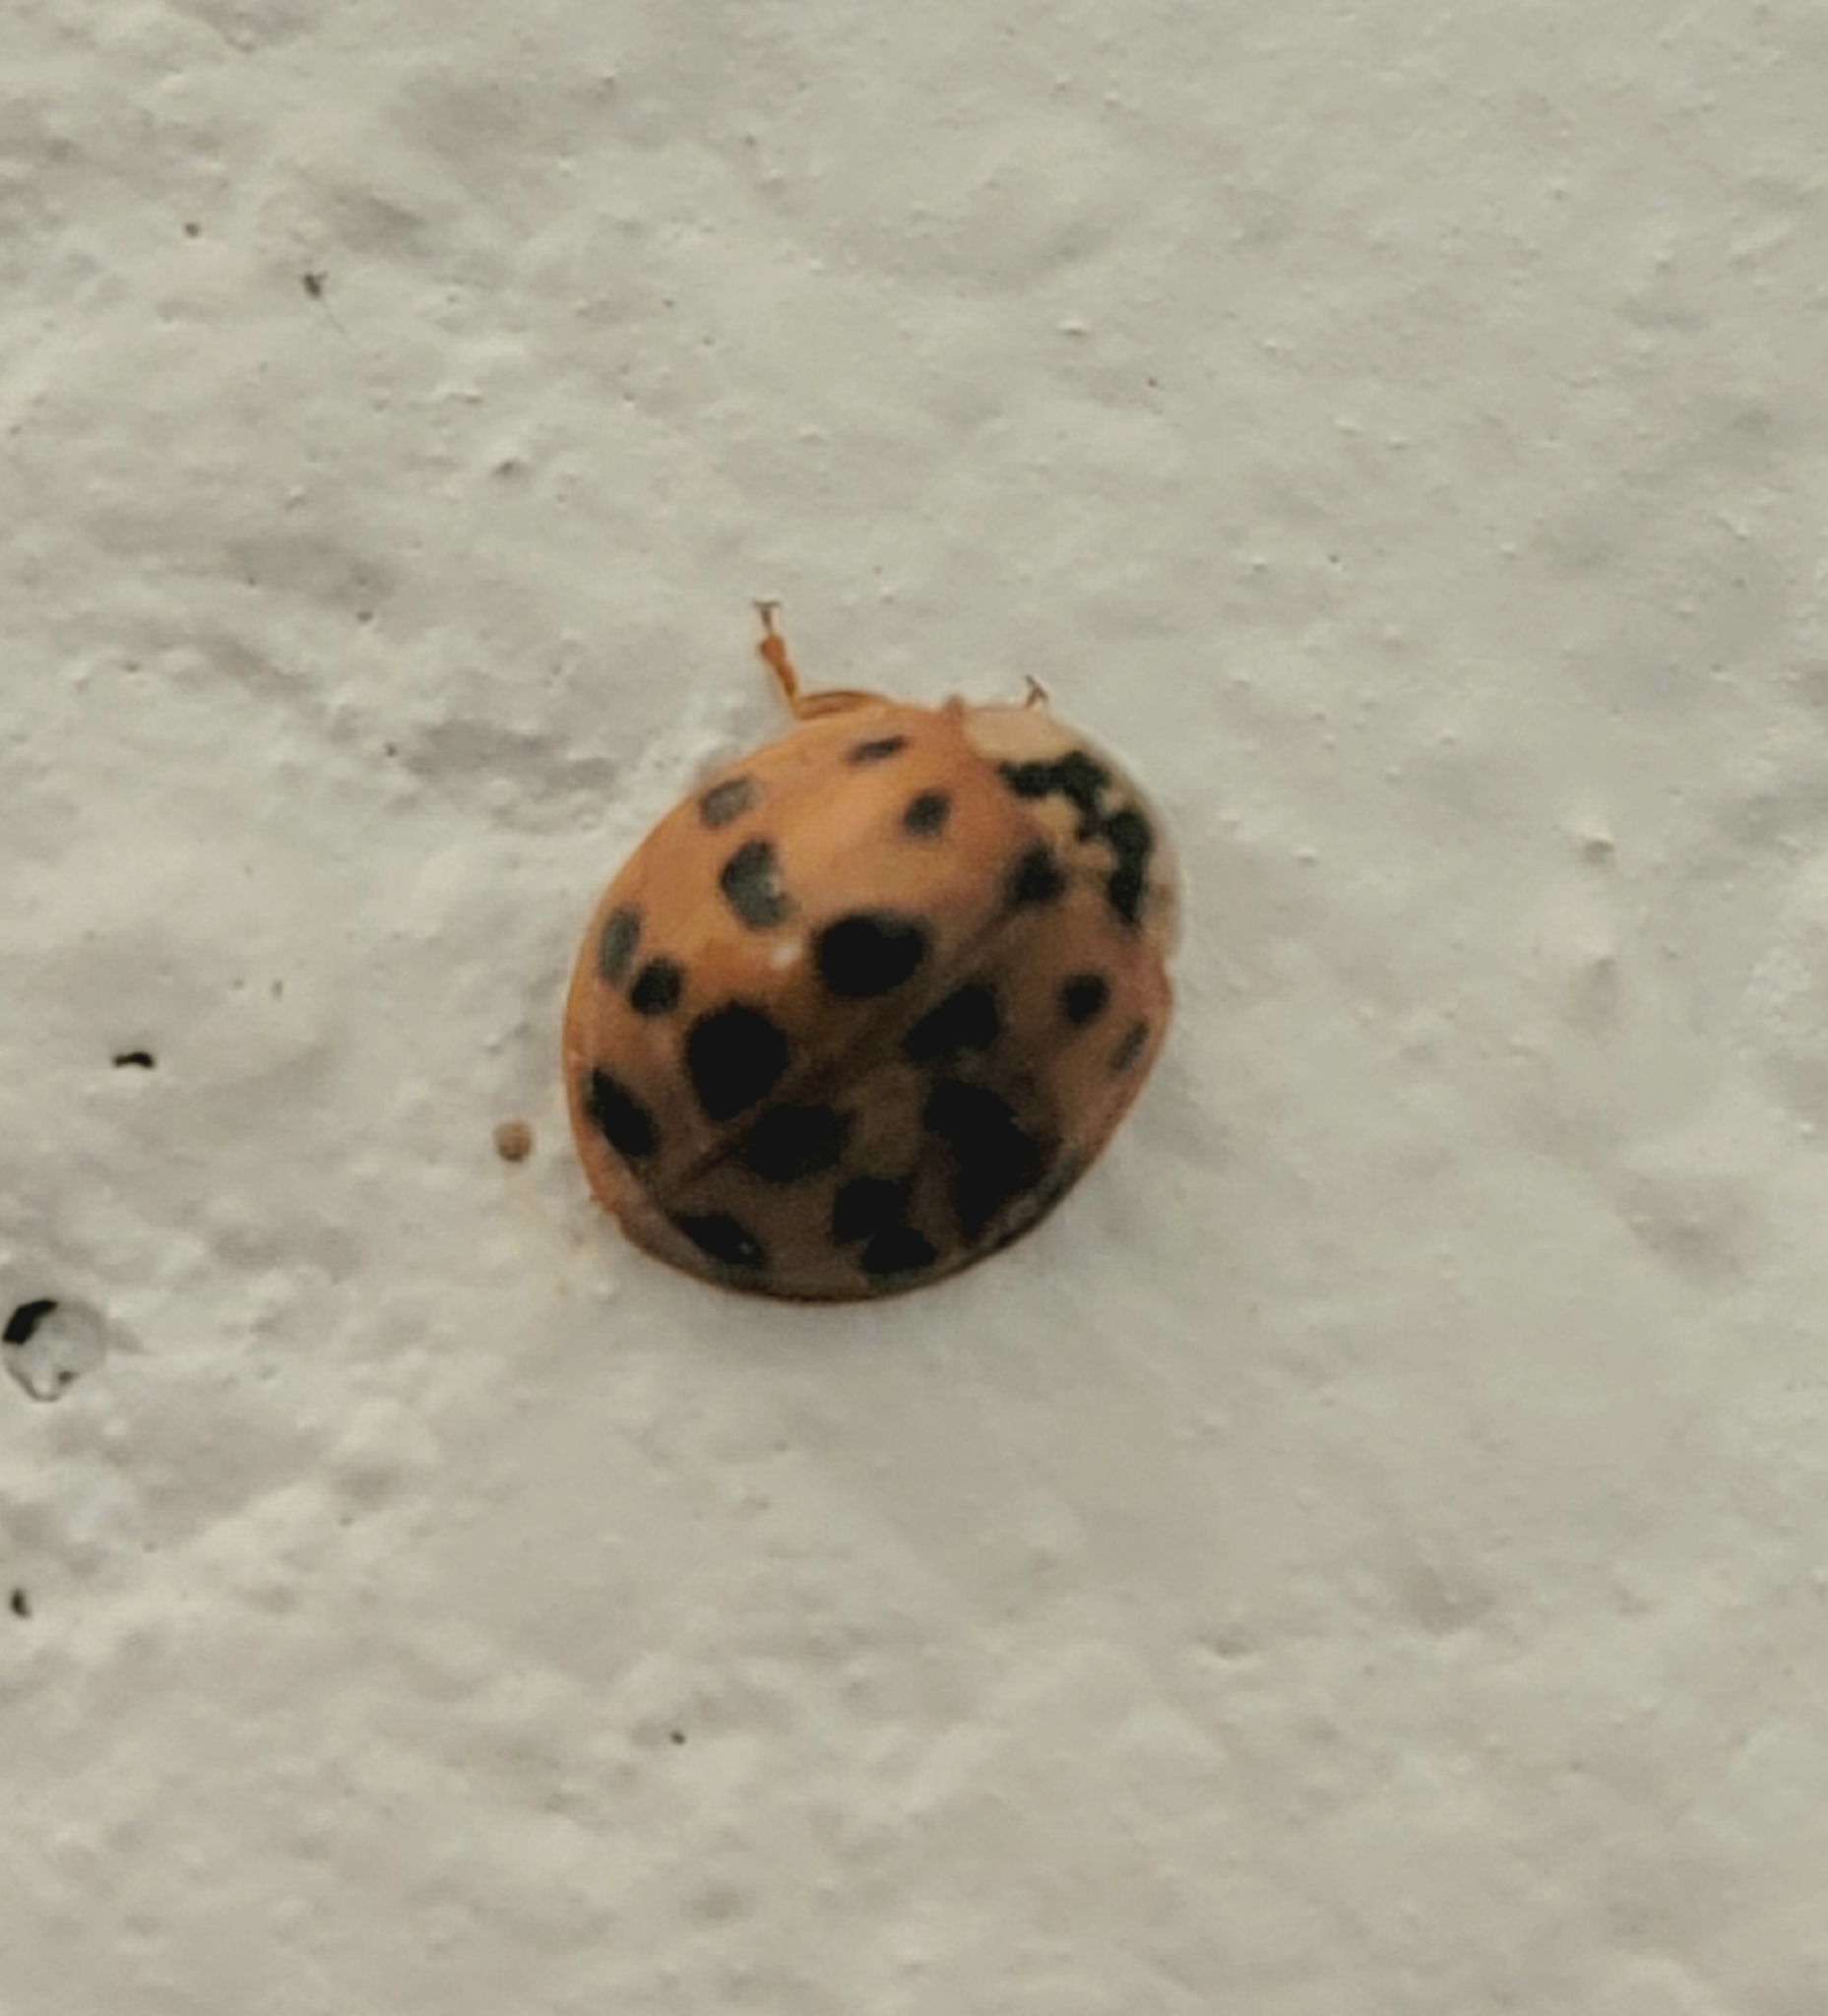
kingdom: Animalia
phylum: Arthropoda
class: Insecta
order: Coleoptera
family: Coccinellidae
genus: Harmonia
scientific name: Harmonia axyridis
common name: Harlequin ladybird
